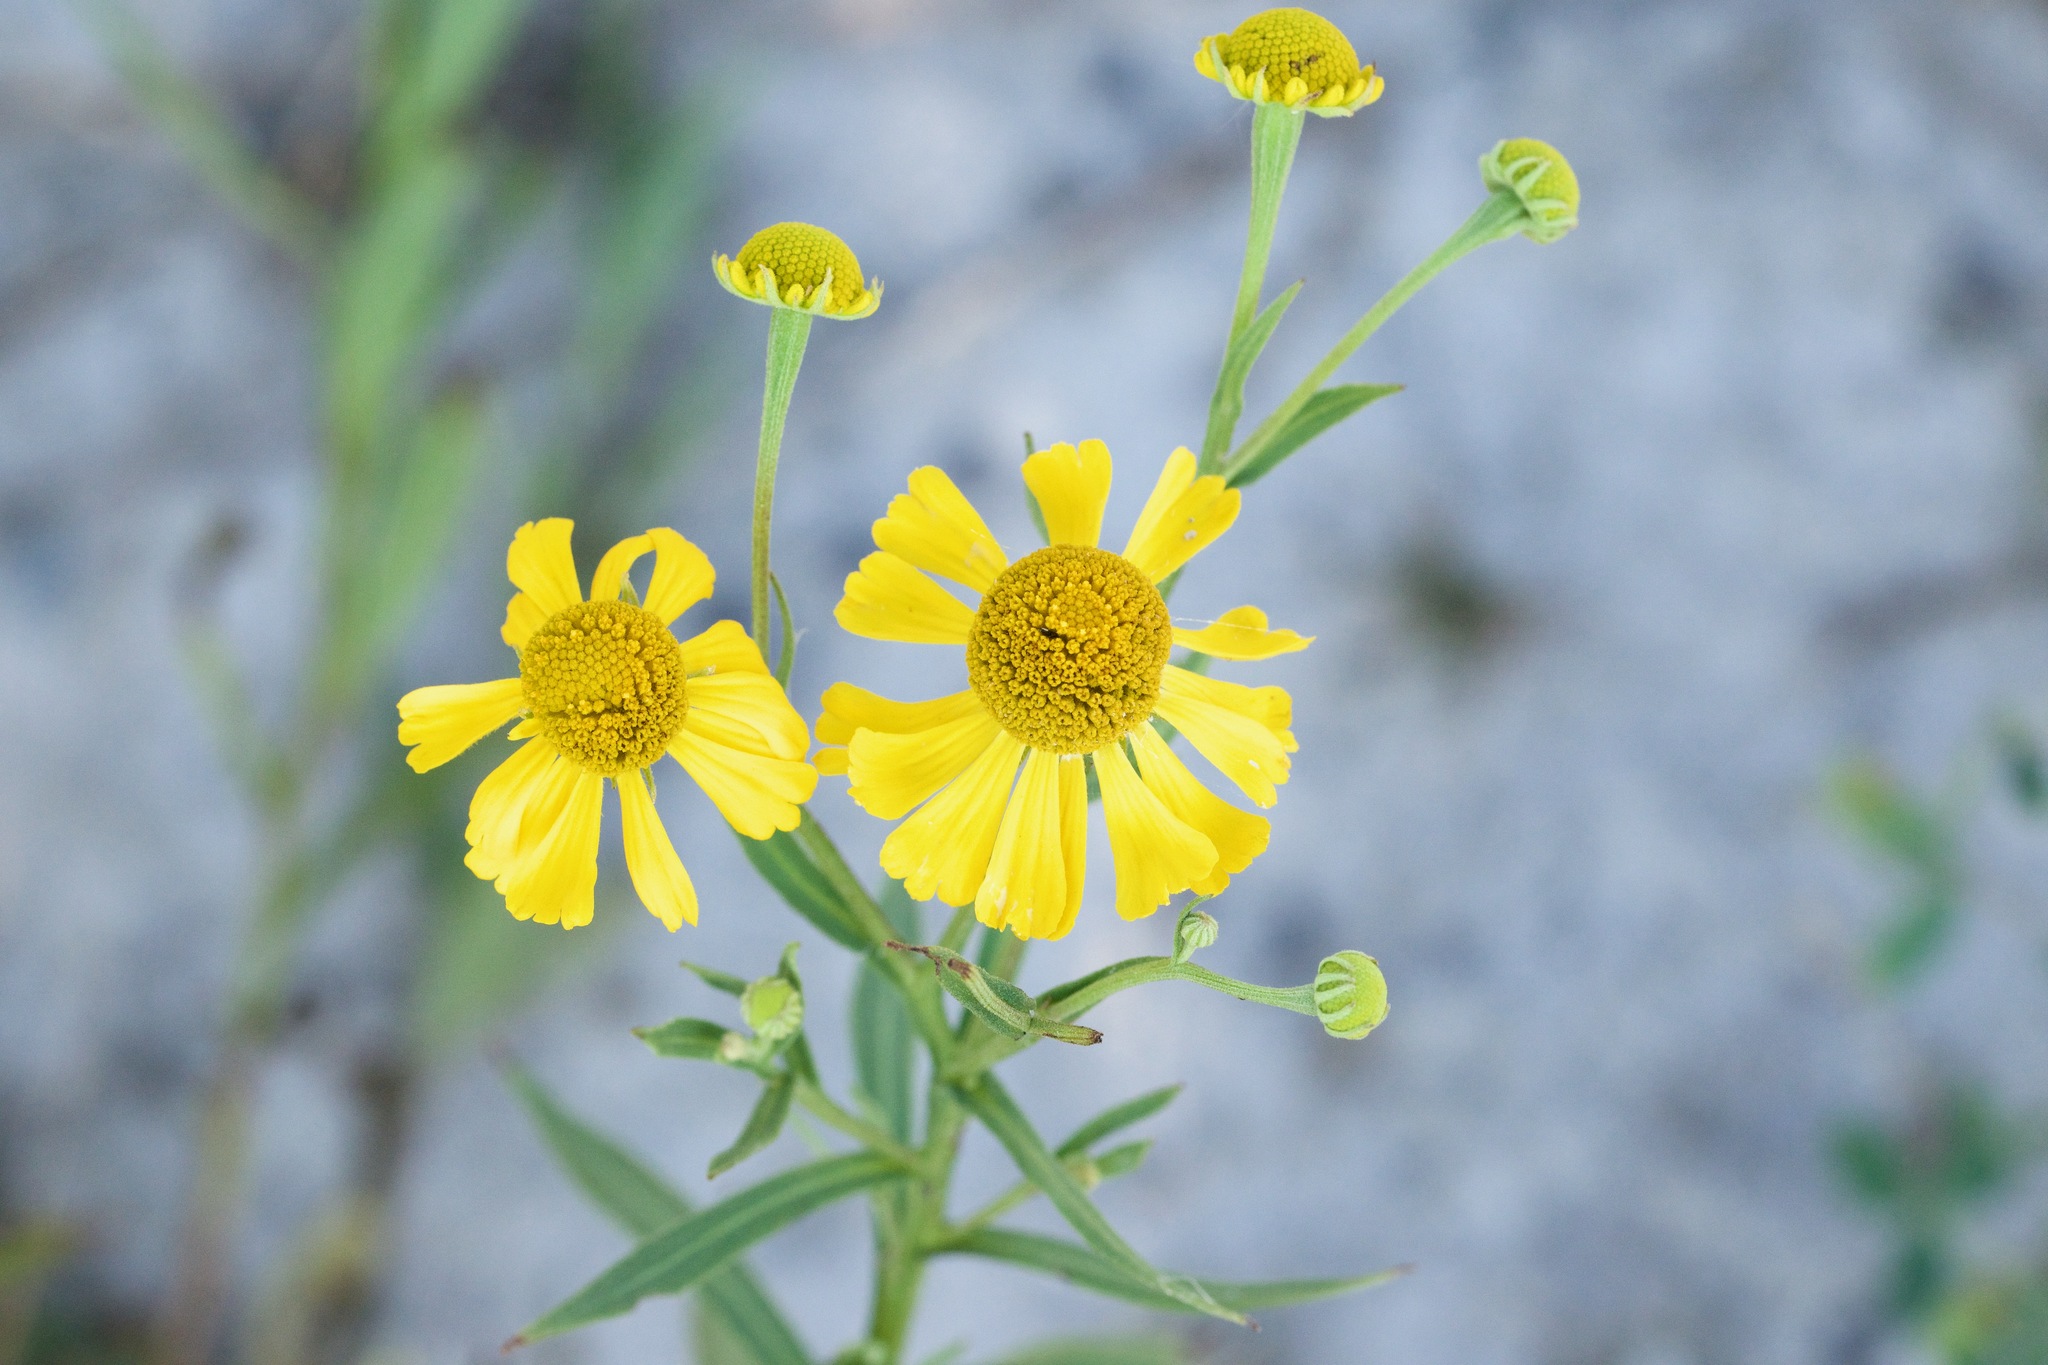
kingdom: Plantae
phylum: Tracheophyta
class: Magnoliopsida
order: Asterales
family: Asteraceae
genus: Helenium
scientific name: Helenium autumnale
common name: Sneezeweed
